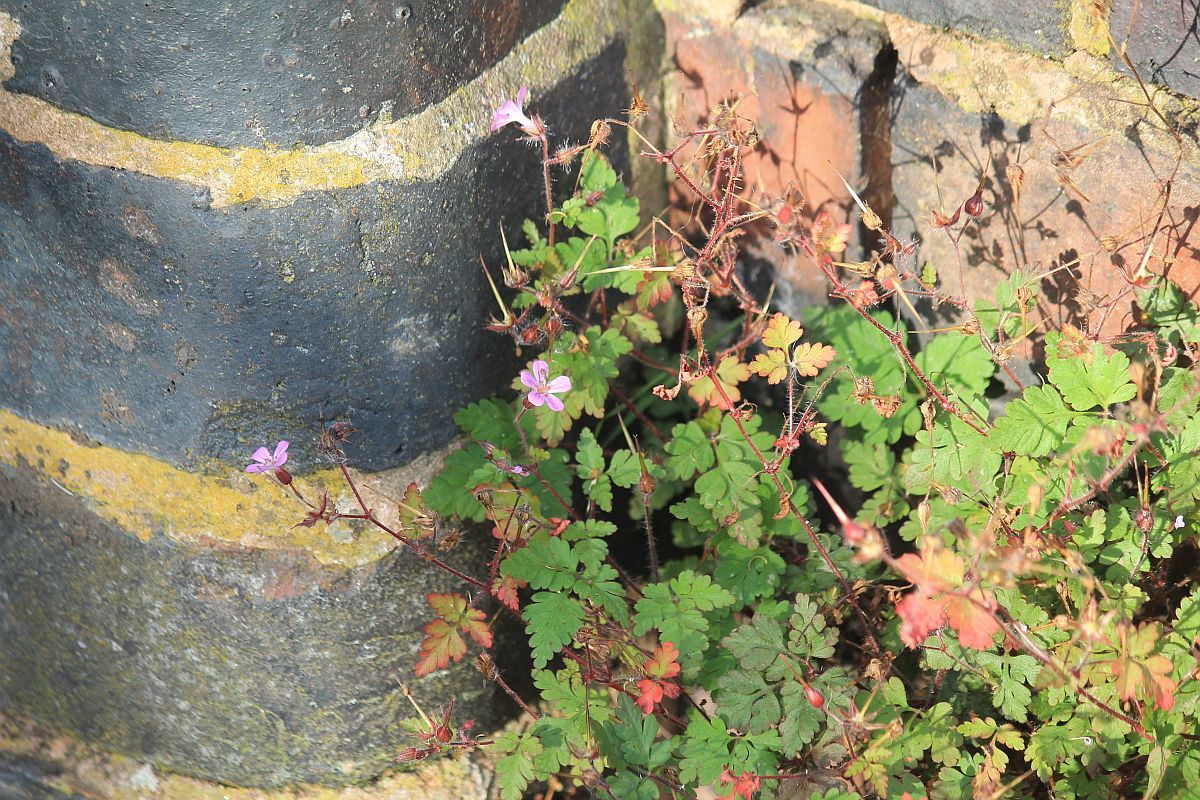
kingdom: Plantae
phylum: Tracheophyta
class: Magnoliopsida
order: Geraniales
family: Geraniaceae
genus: Geranium
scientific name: Geranium robertianum
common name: Herb-robert
